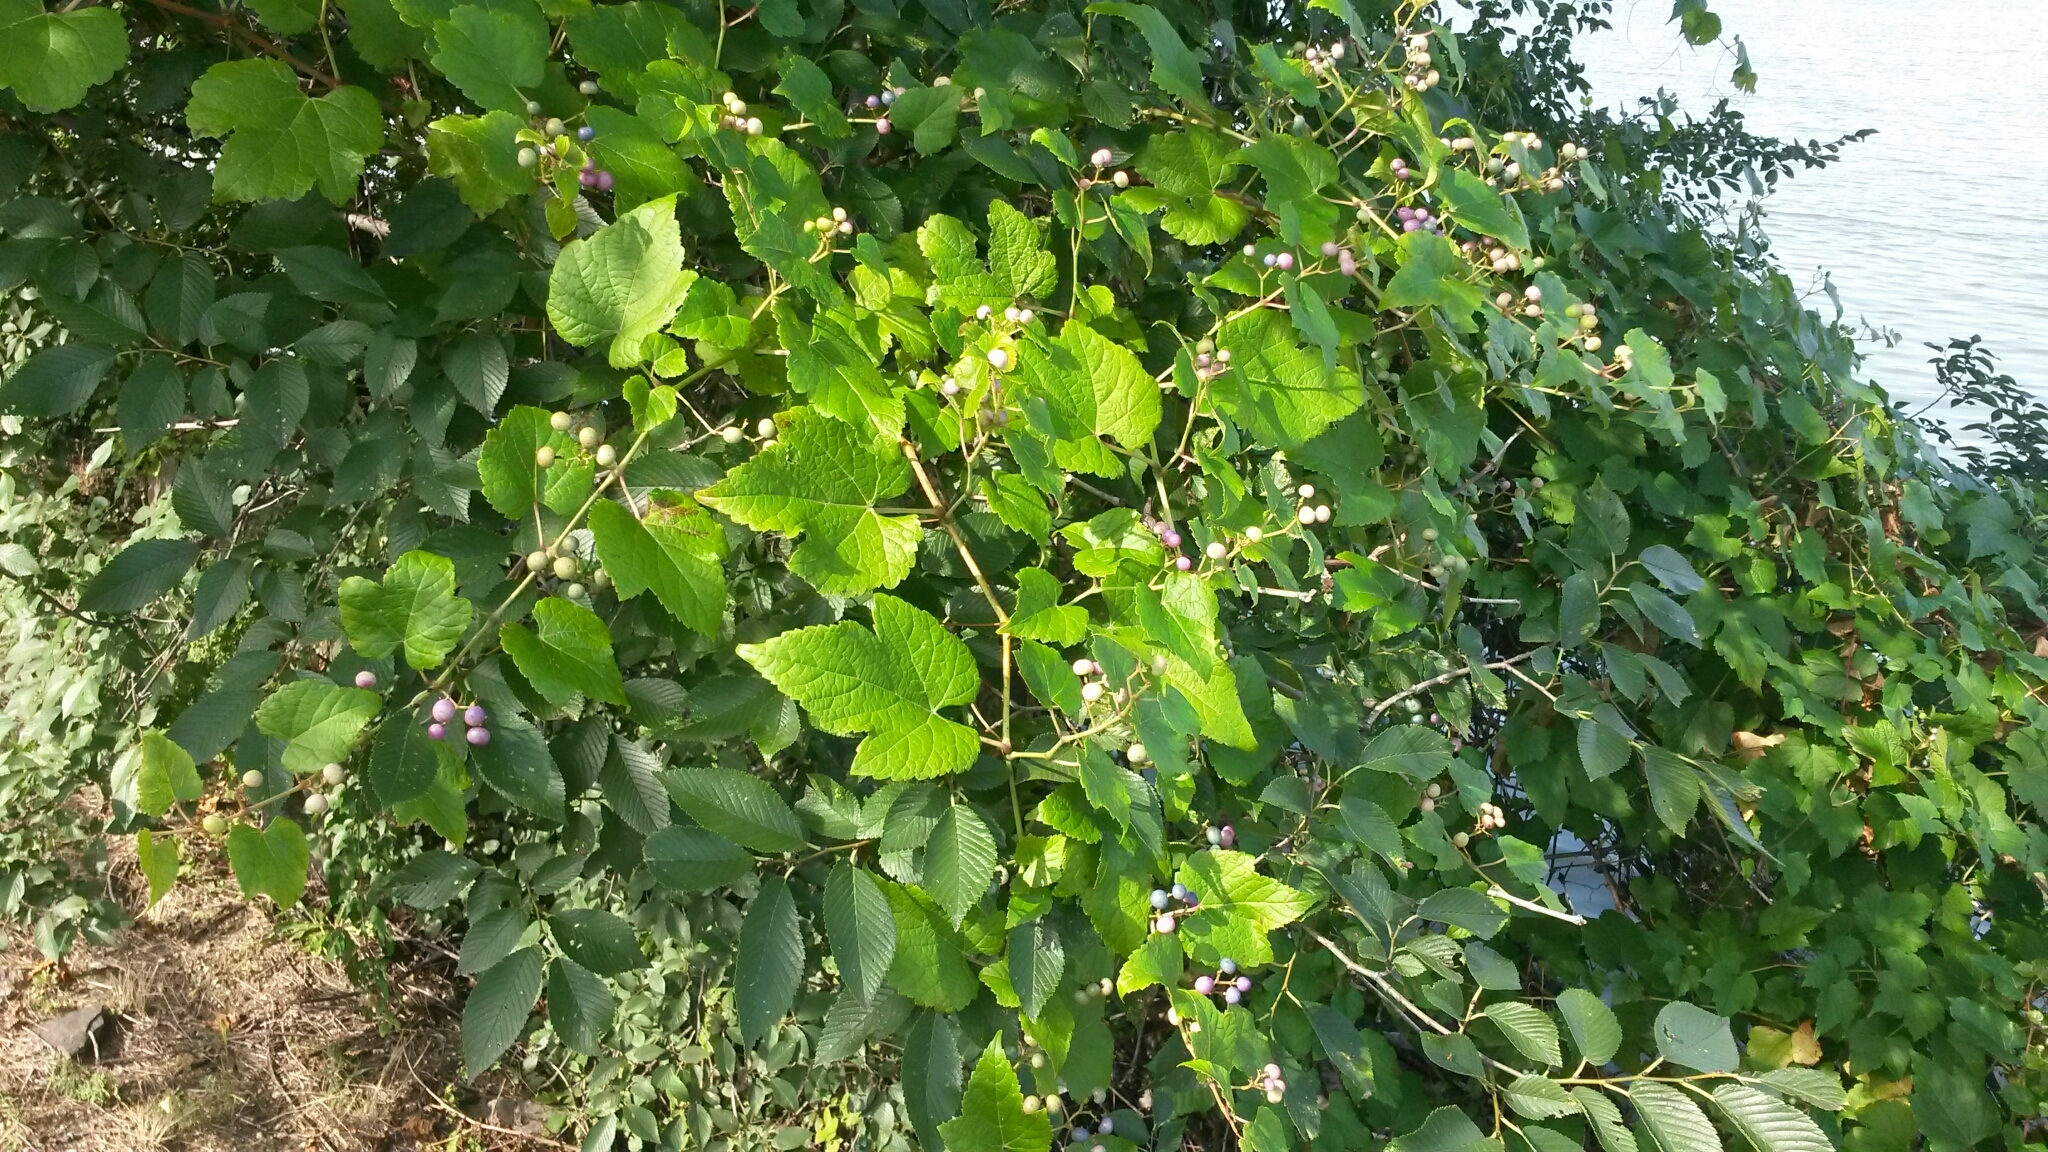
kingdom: Plantae
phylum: Tracheophyta
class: Magnoliopsida
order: Vitales
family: Vitaceae
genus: Ampelopsis
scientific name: Ampelopsis glandulosa
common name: Amur peppervine
